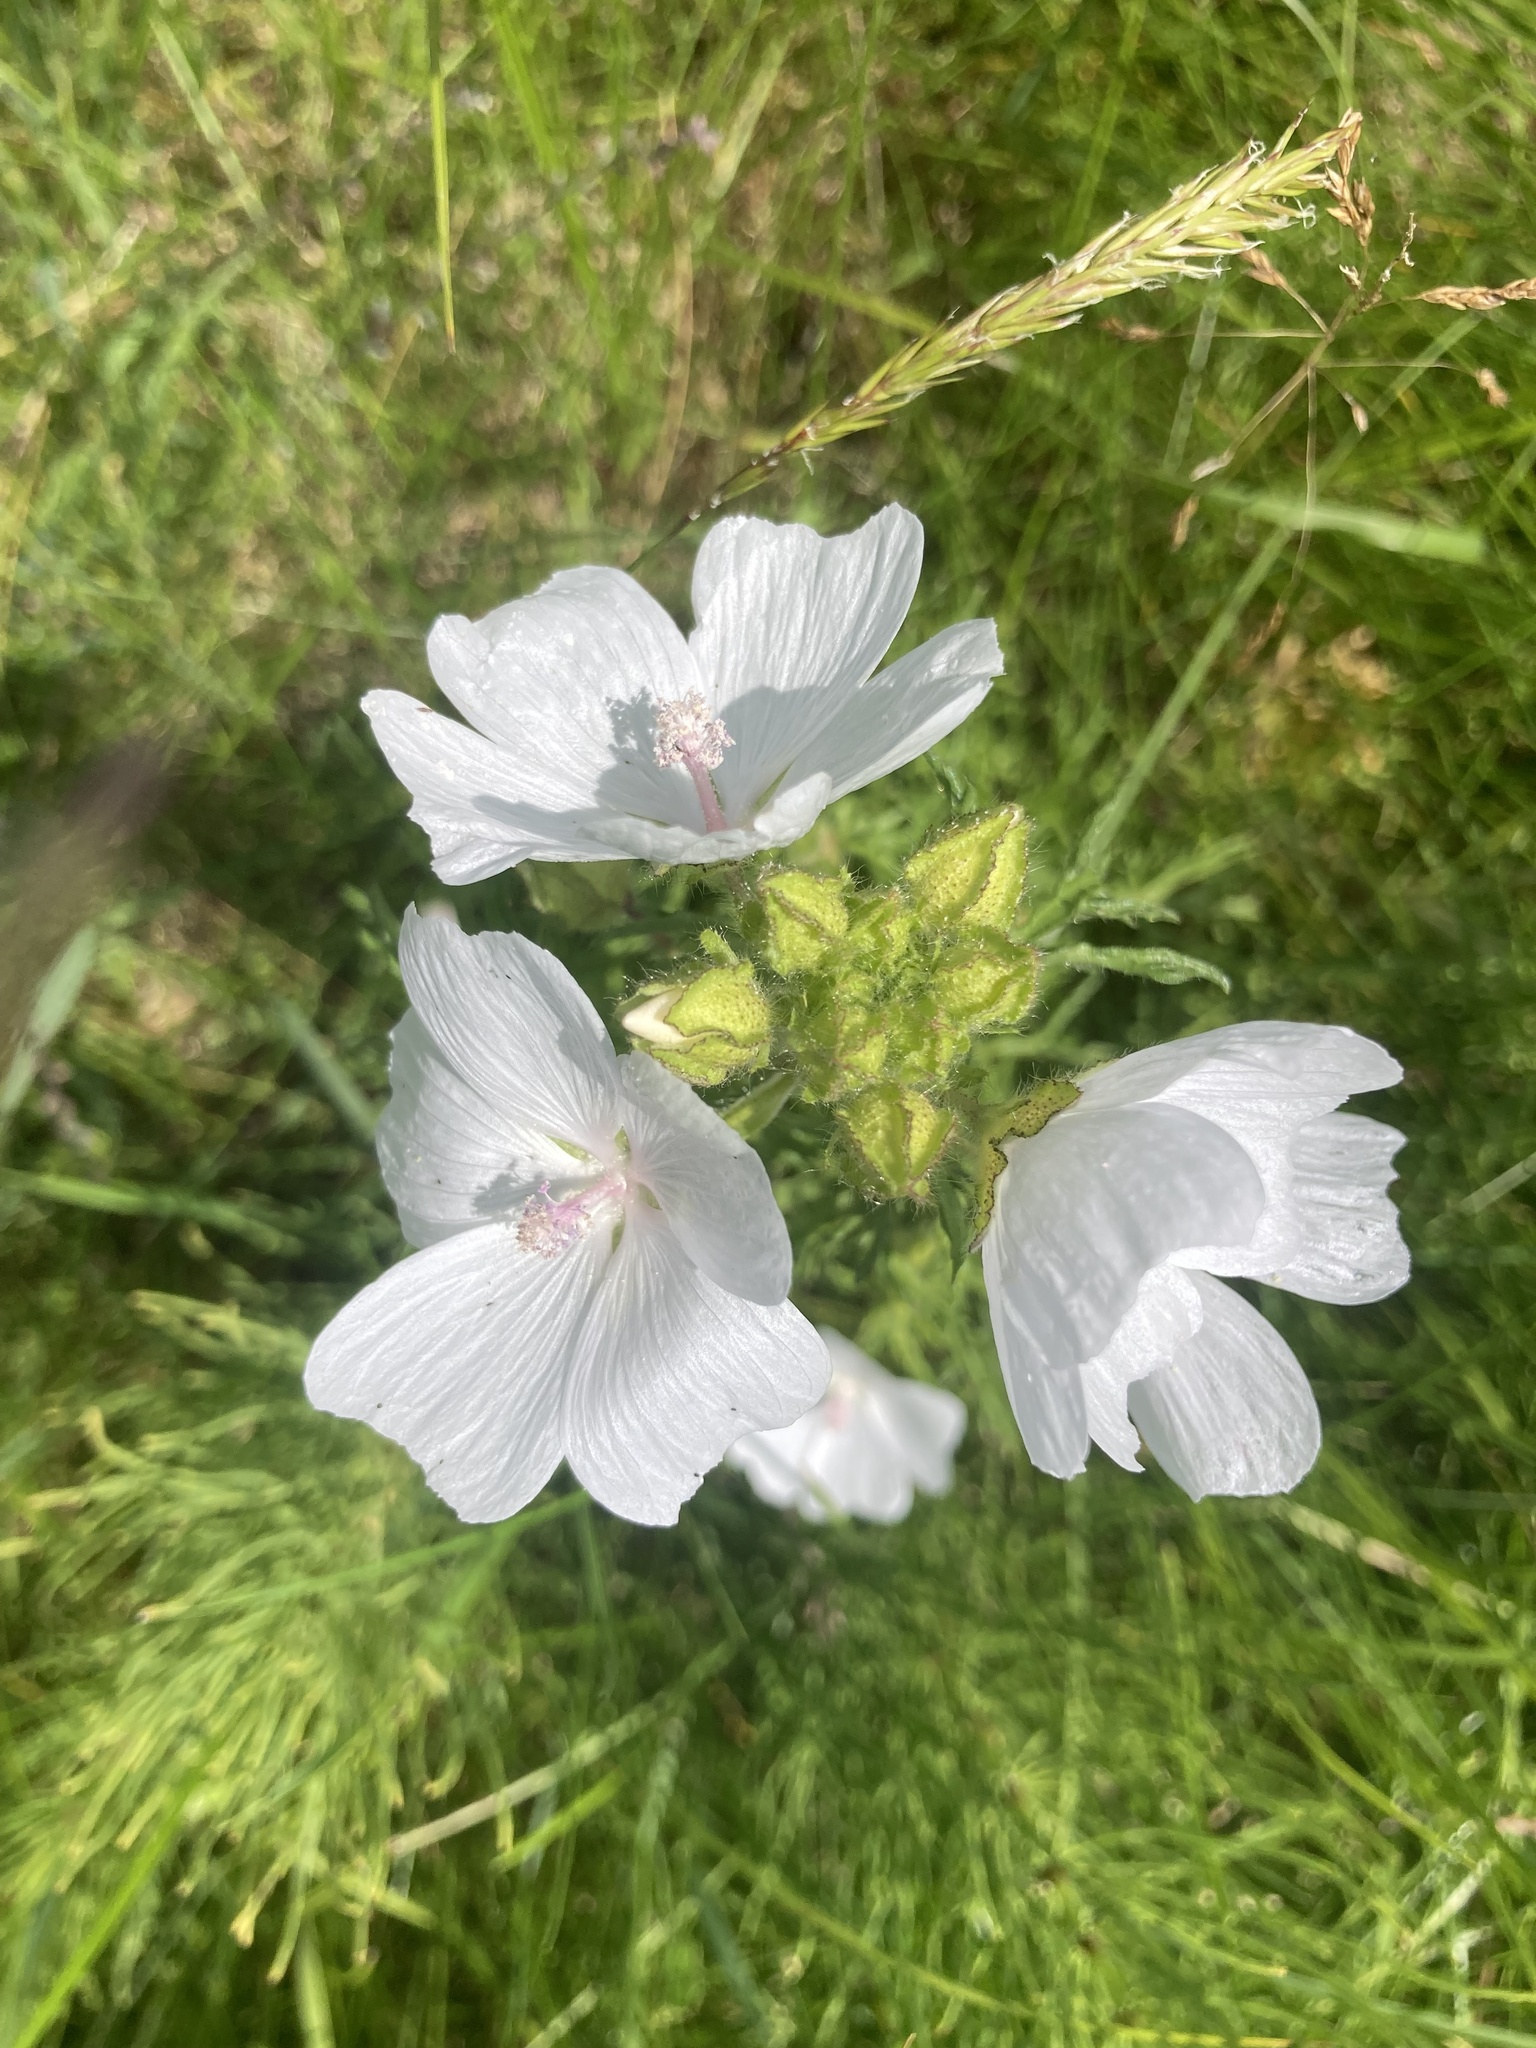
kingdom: Plantae
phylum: Tracheophyta
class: Magnoliopsida
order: Malvales
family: Malvaceae
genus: Malva
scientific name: Malva moschata
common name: Musk mallow
